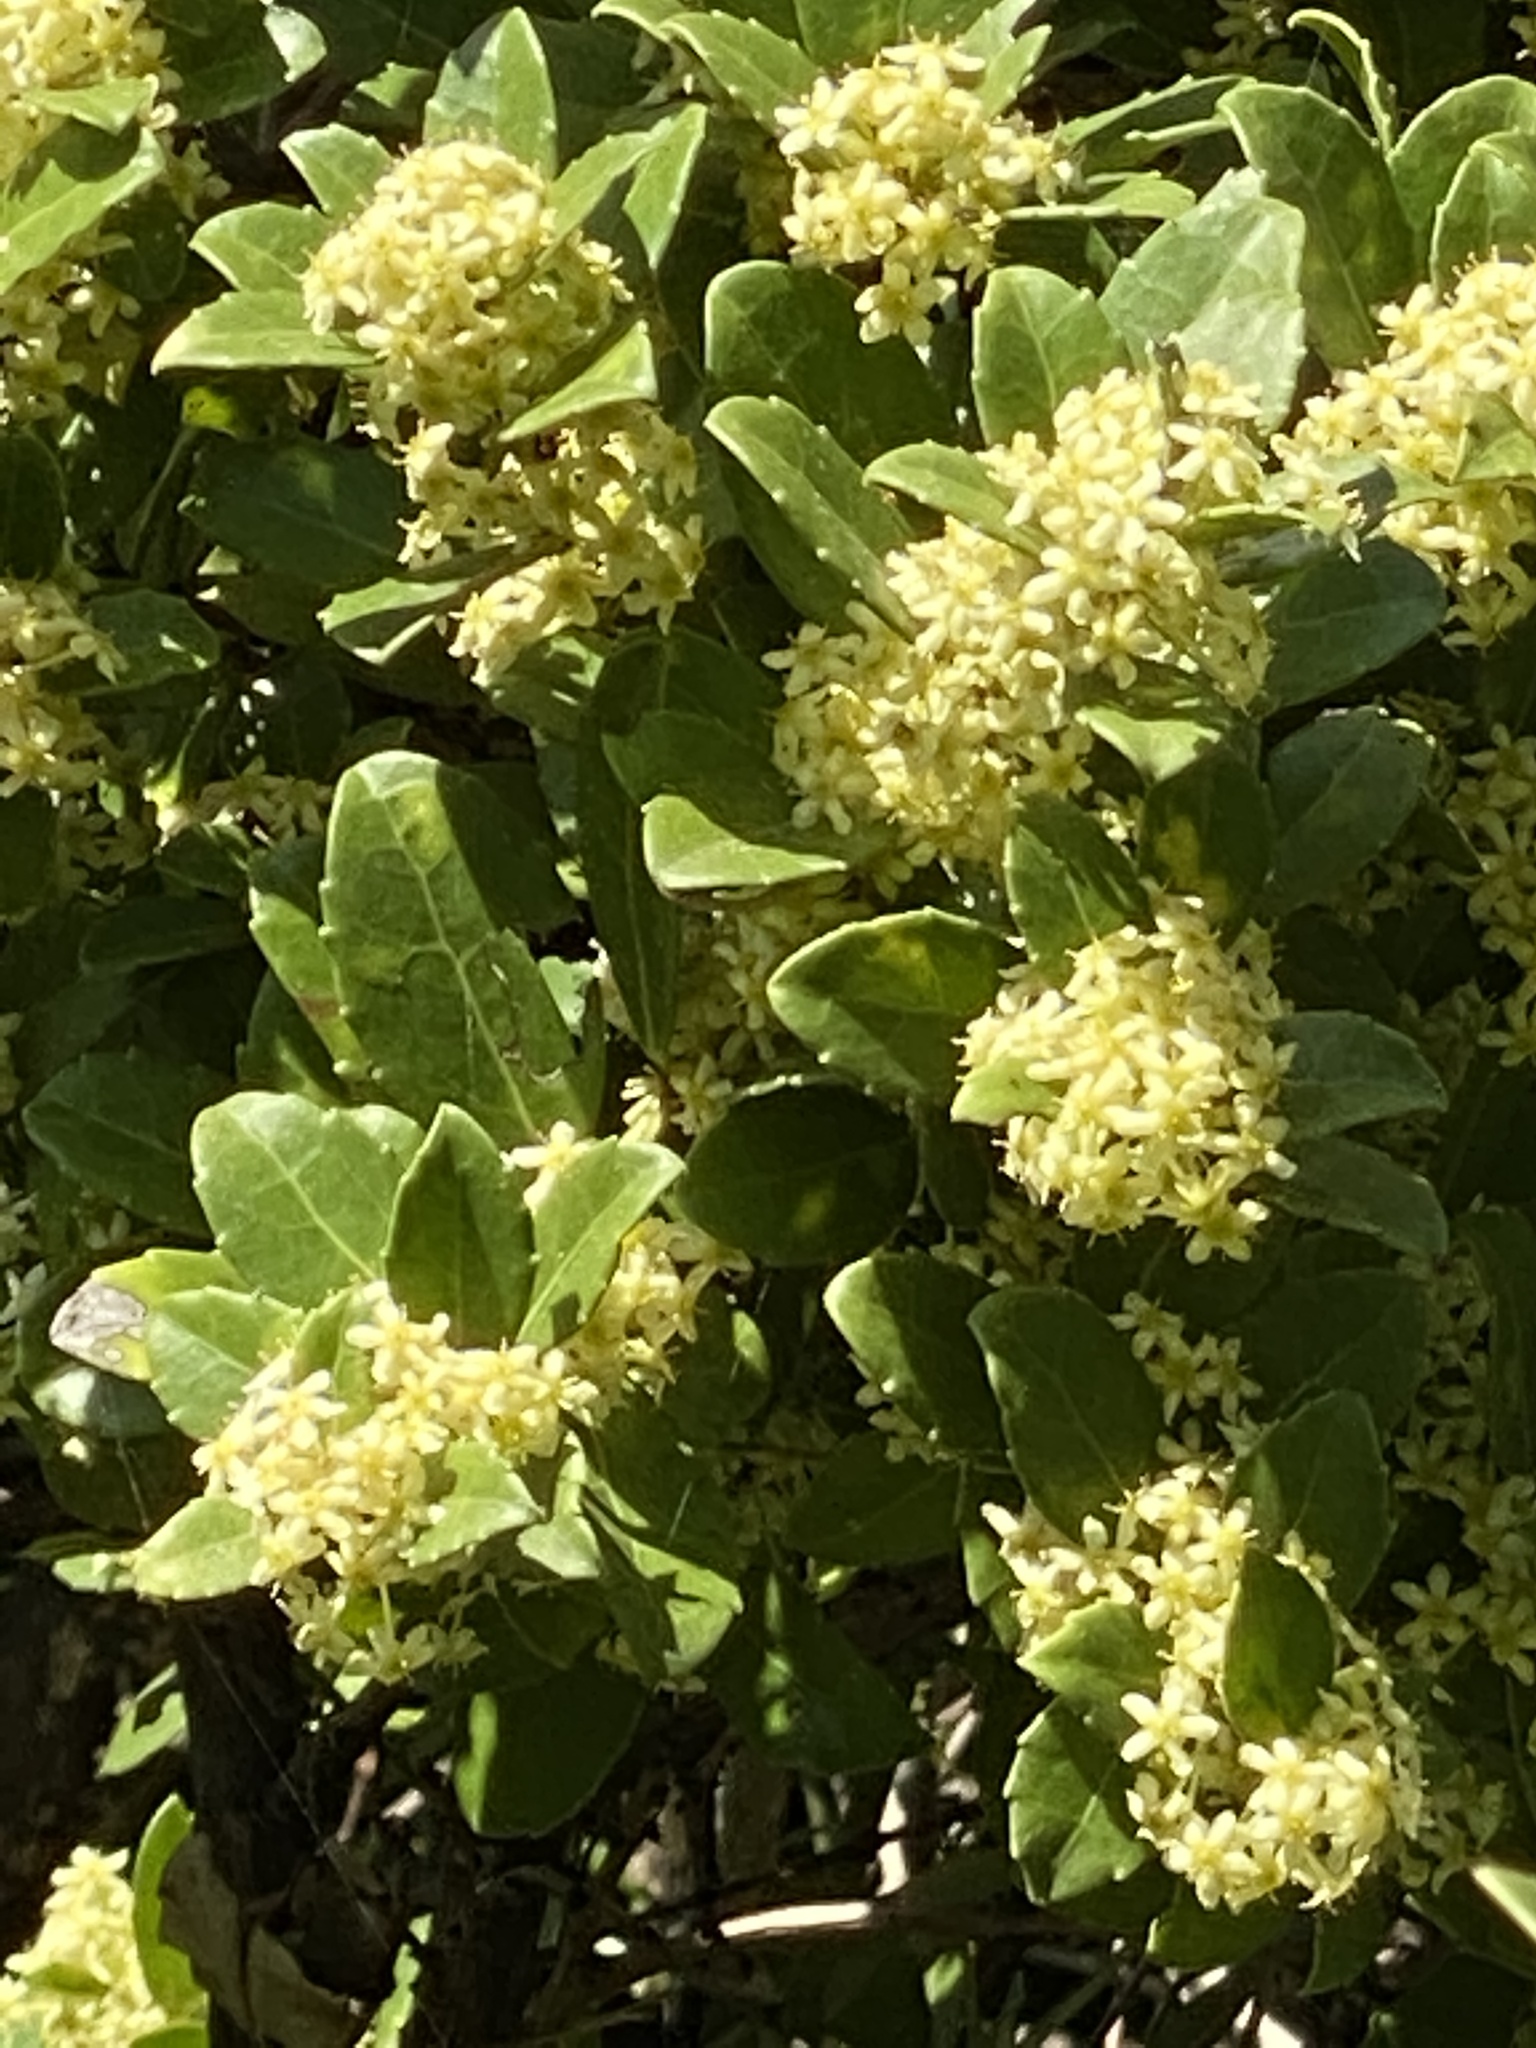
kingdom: Plantae
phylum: Tracheophyta
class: Magnoliopsida
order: Celastrales
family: Celastraceae
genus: Gymnosporia
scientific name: Gymnosporia procumbens
